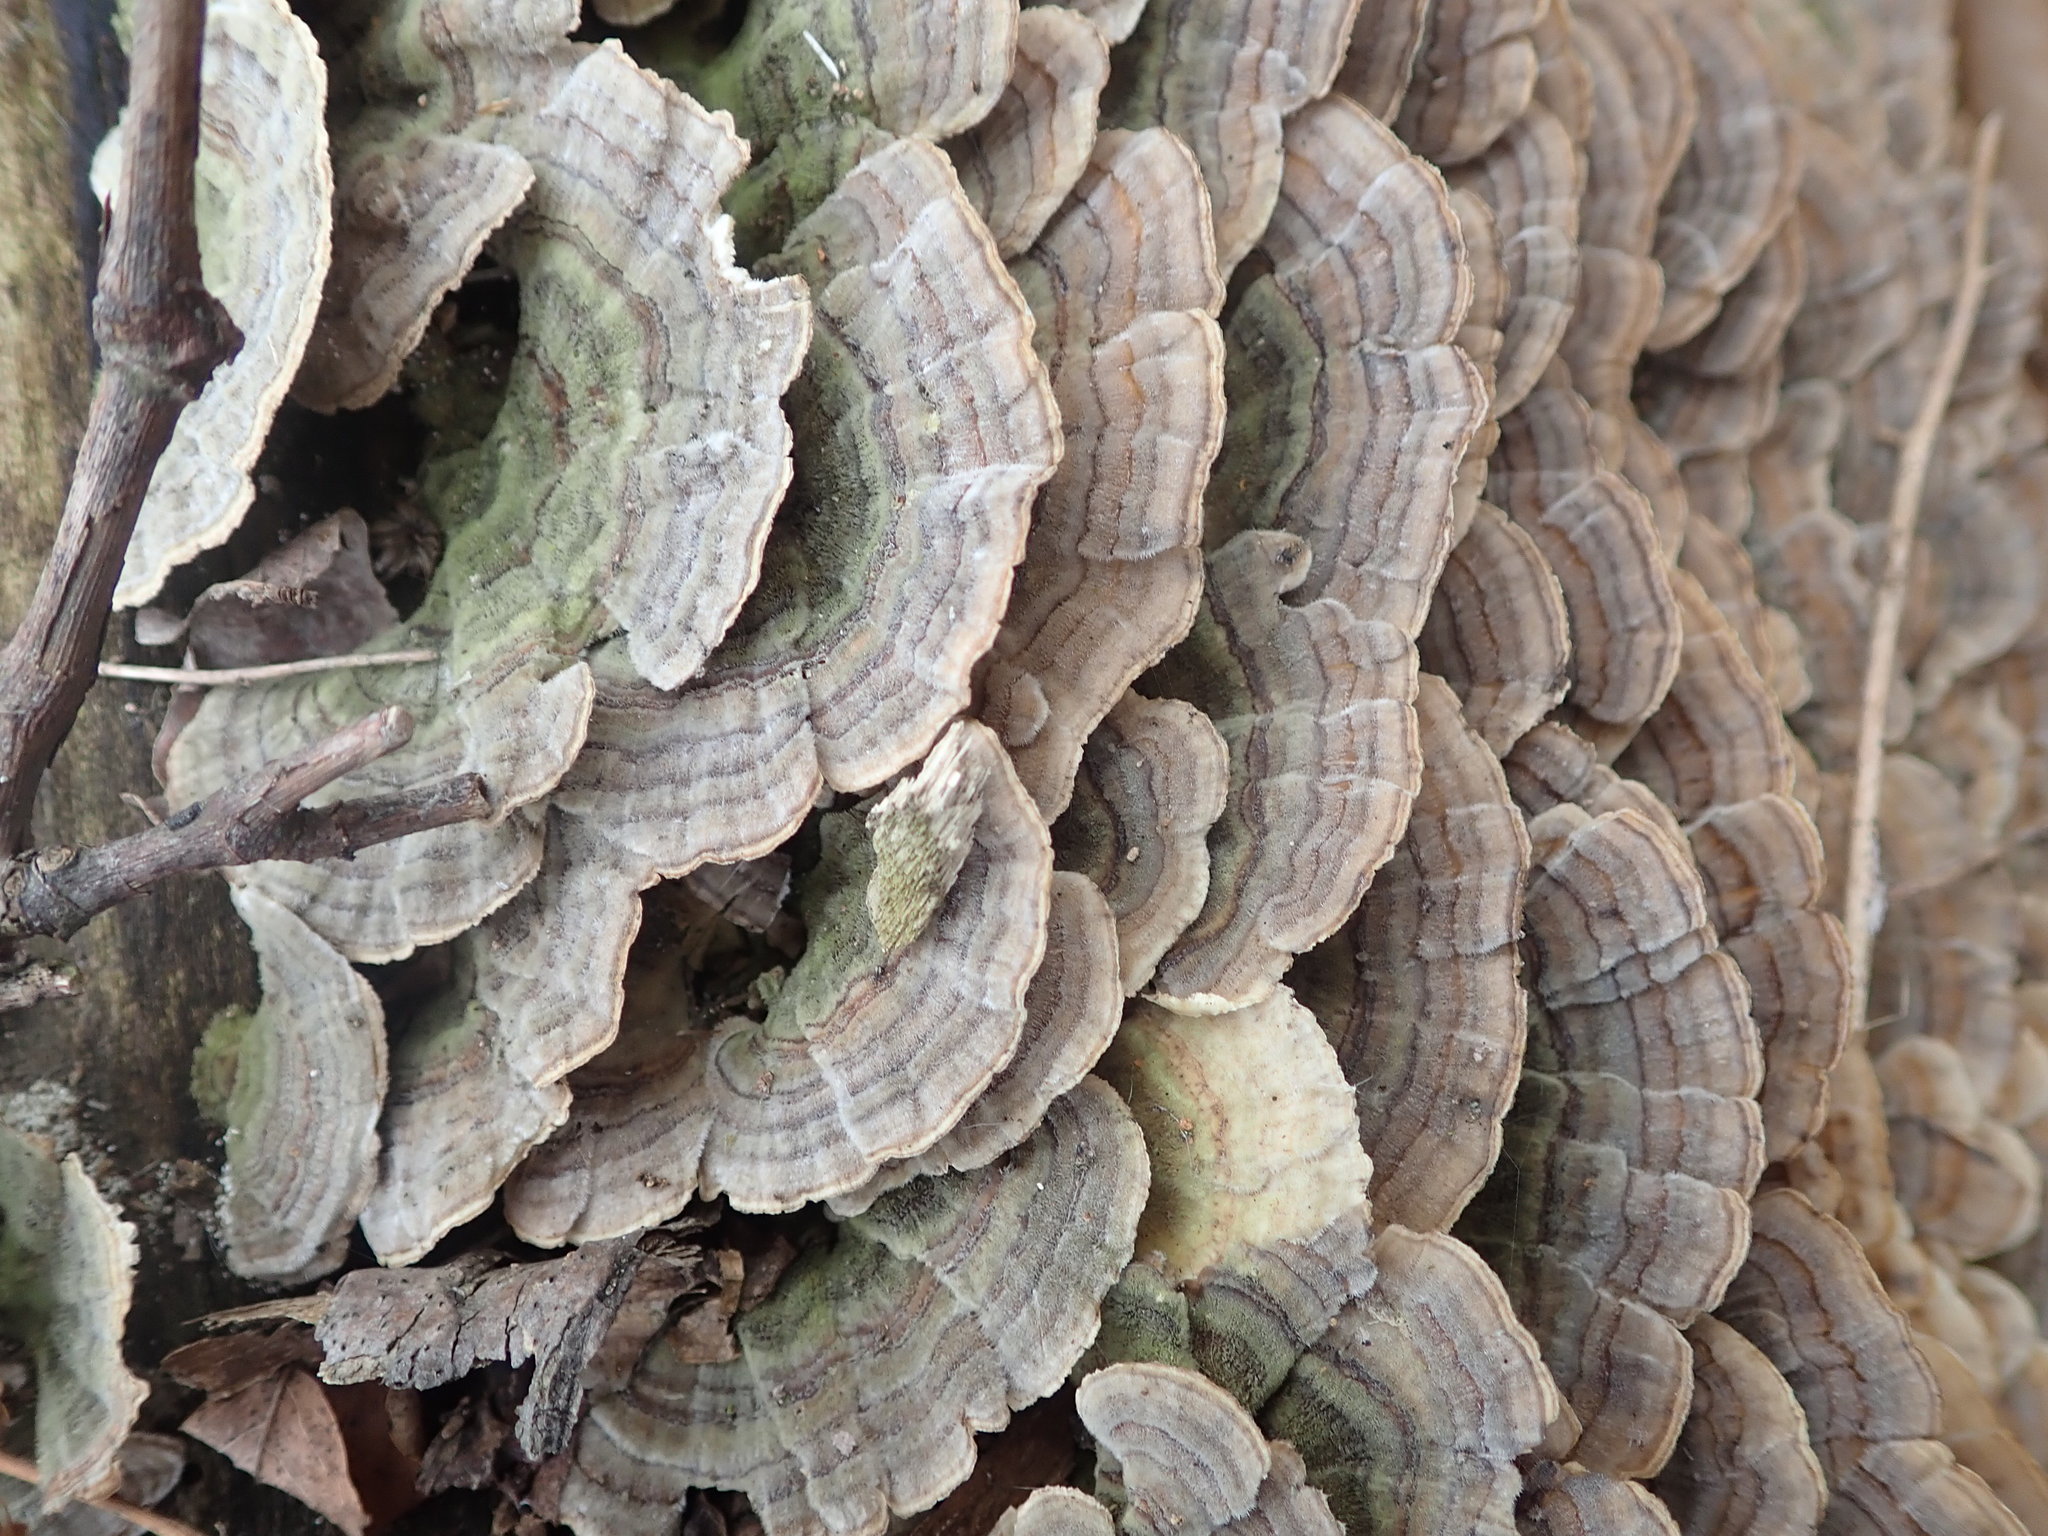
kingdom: Fungi
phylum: Basidiomycota
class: Agaricomycetes
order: Polyporales
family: Polyporaceae
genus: Trametes
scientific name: Trametes versicolor
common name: Turkeytail
